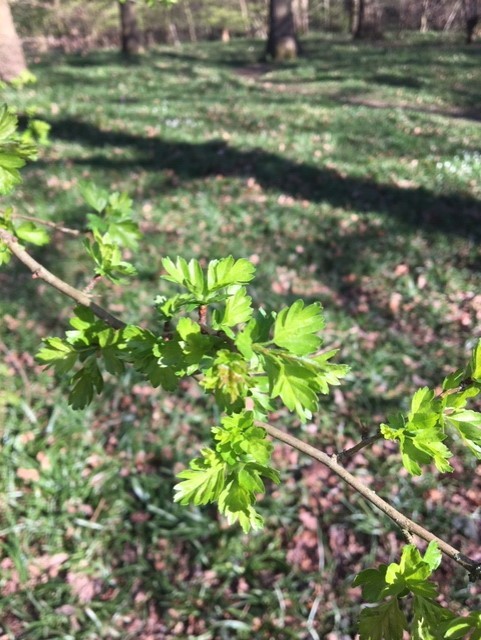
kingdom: Plantae
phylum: Tracheophyta
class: Magnoliopsida
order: Rosales
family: Rosaceae
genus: Crataegus
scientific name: Crataegus monogyna
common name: Hawthorn
